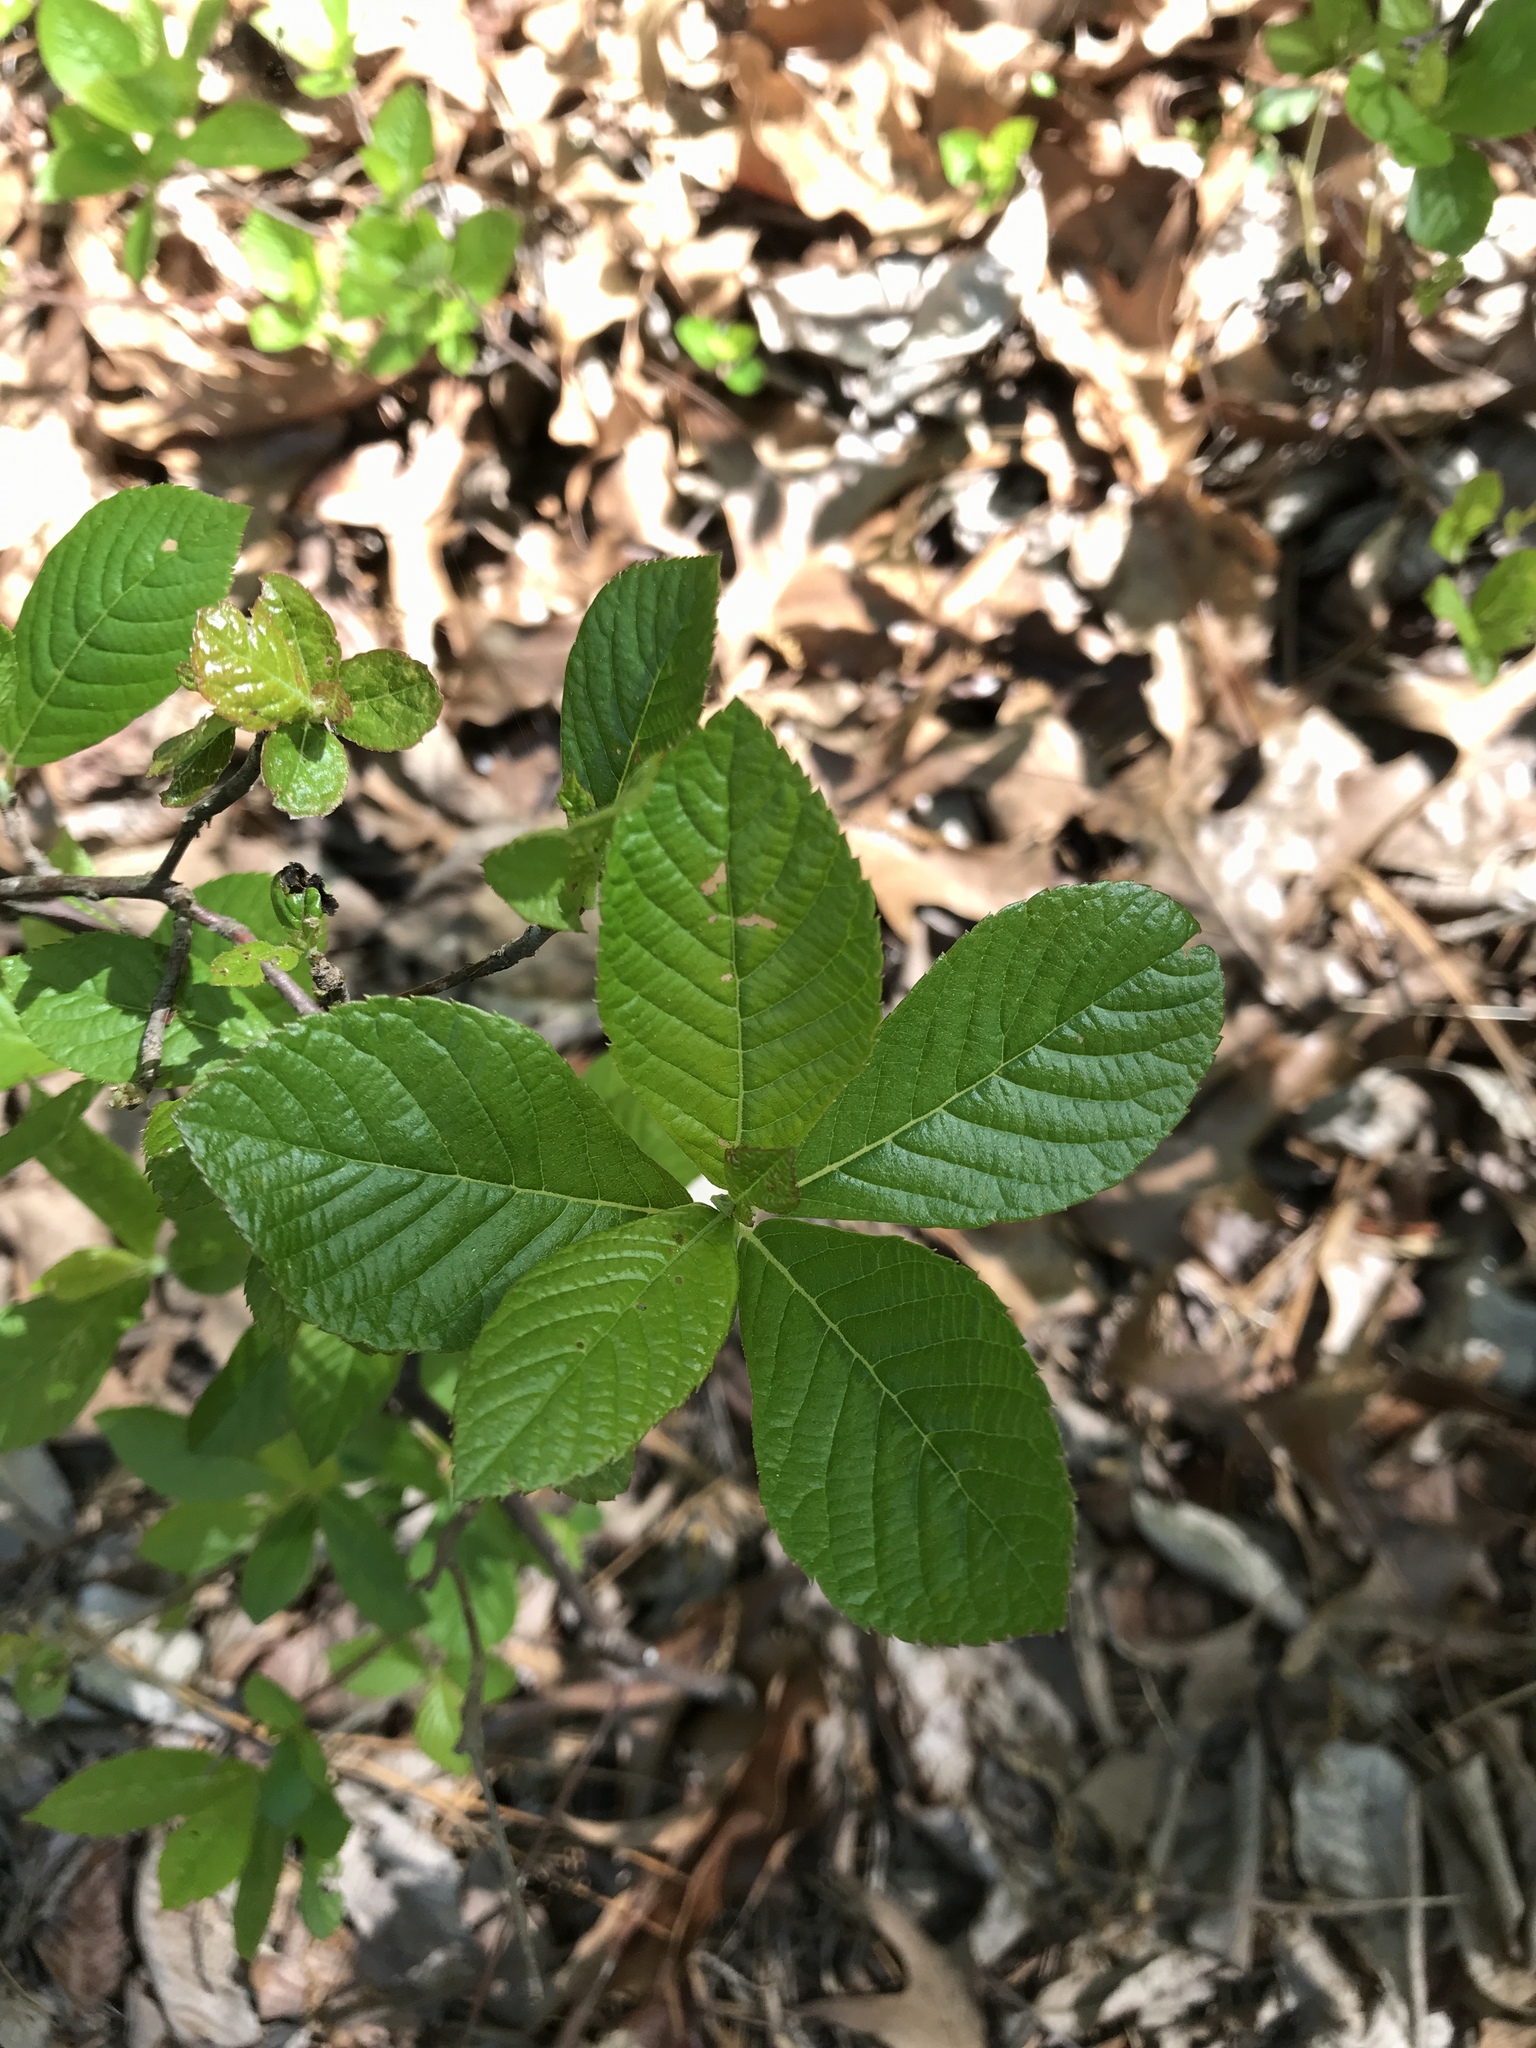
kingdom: Plantae
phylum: Tracheophyta
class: Magnoliopsida
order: Ericales
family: Clethraceae
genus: Clethra
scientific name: Clethra alnifolia
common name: Sweet pepperbush
